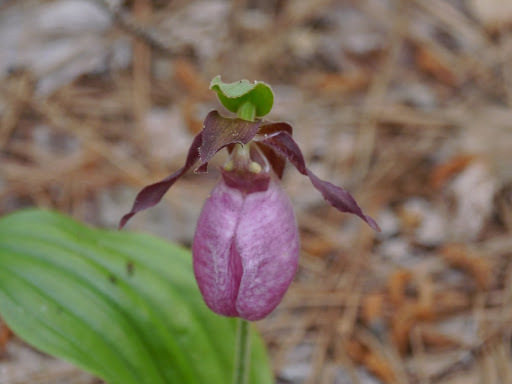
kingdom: Plantae
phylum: Tracheophyta
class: Liliopsida
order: Asparagales
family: Orchidaceae
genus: Cypripedium
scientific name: Cypripedium acaule
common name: Pink lady's-slipper
